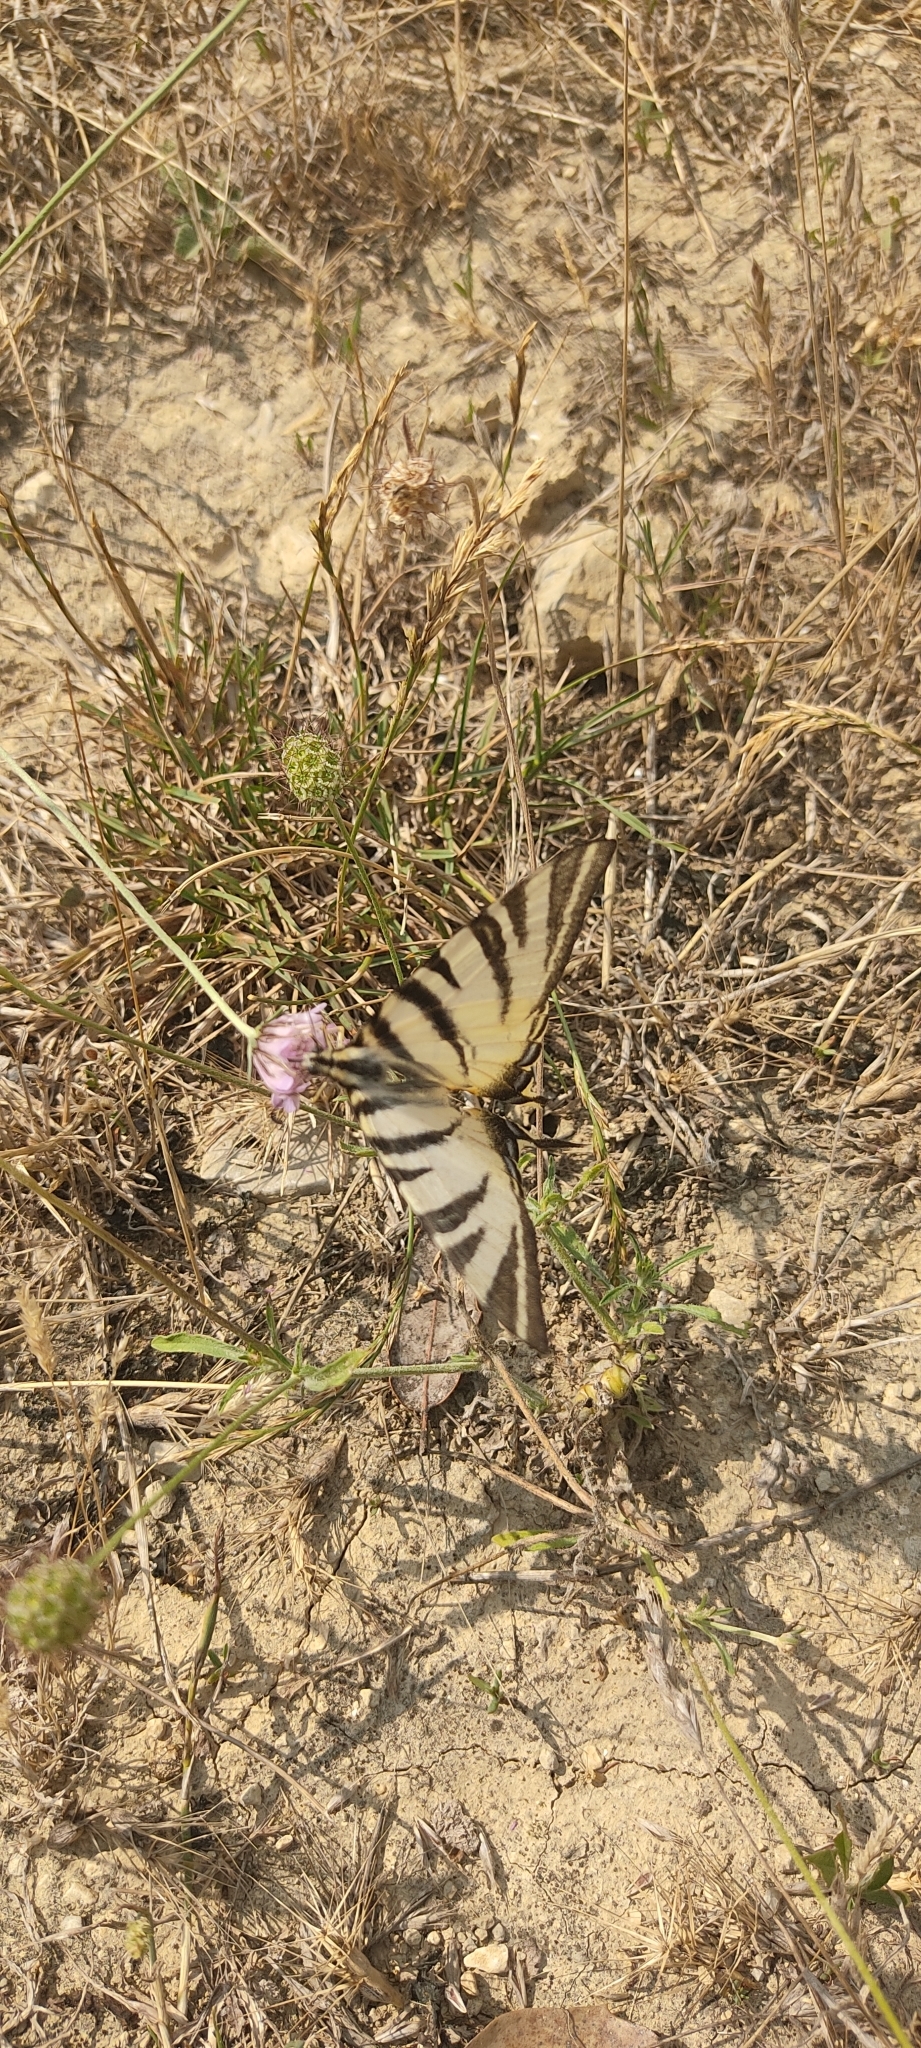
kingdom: Animalia
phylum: Arthropoda
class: Insecta
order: Lepidoptera
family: Papilionidae
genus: Iphiclides
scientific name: Iphiclides podalirius
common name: Scarce swallowtail
